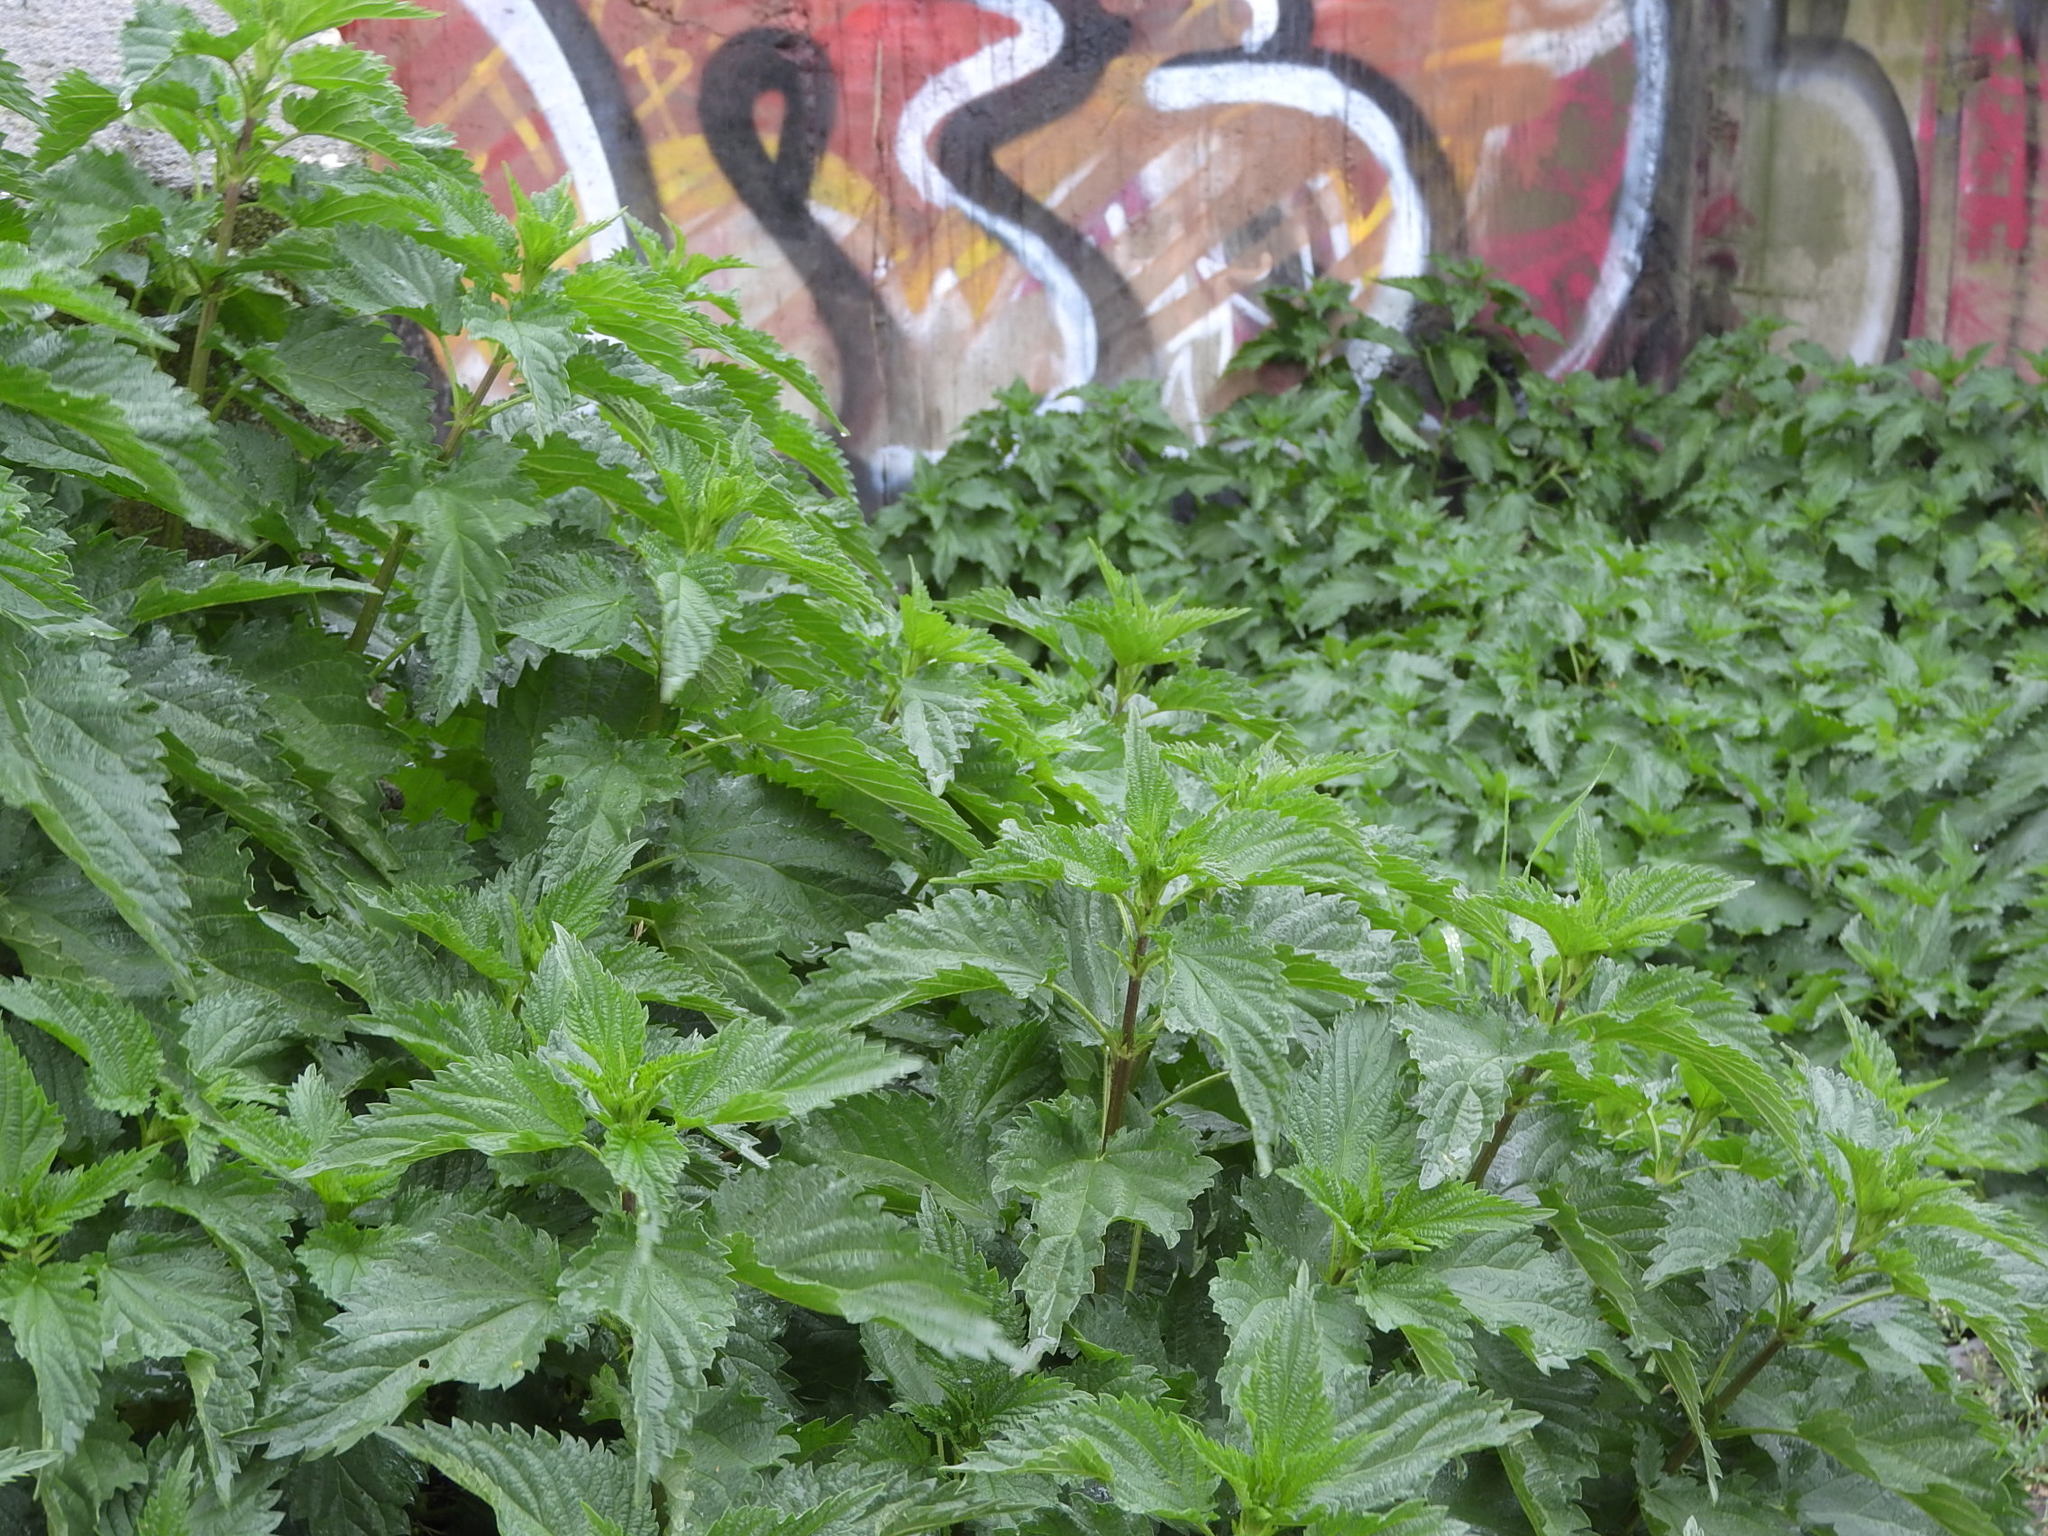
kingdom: Plantae
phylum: Tracheophyta
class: Magnoliopsida
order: Rosales
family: Urticaceae
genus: Urtica
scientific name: Urtica dioica
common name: Common nettle
